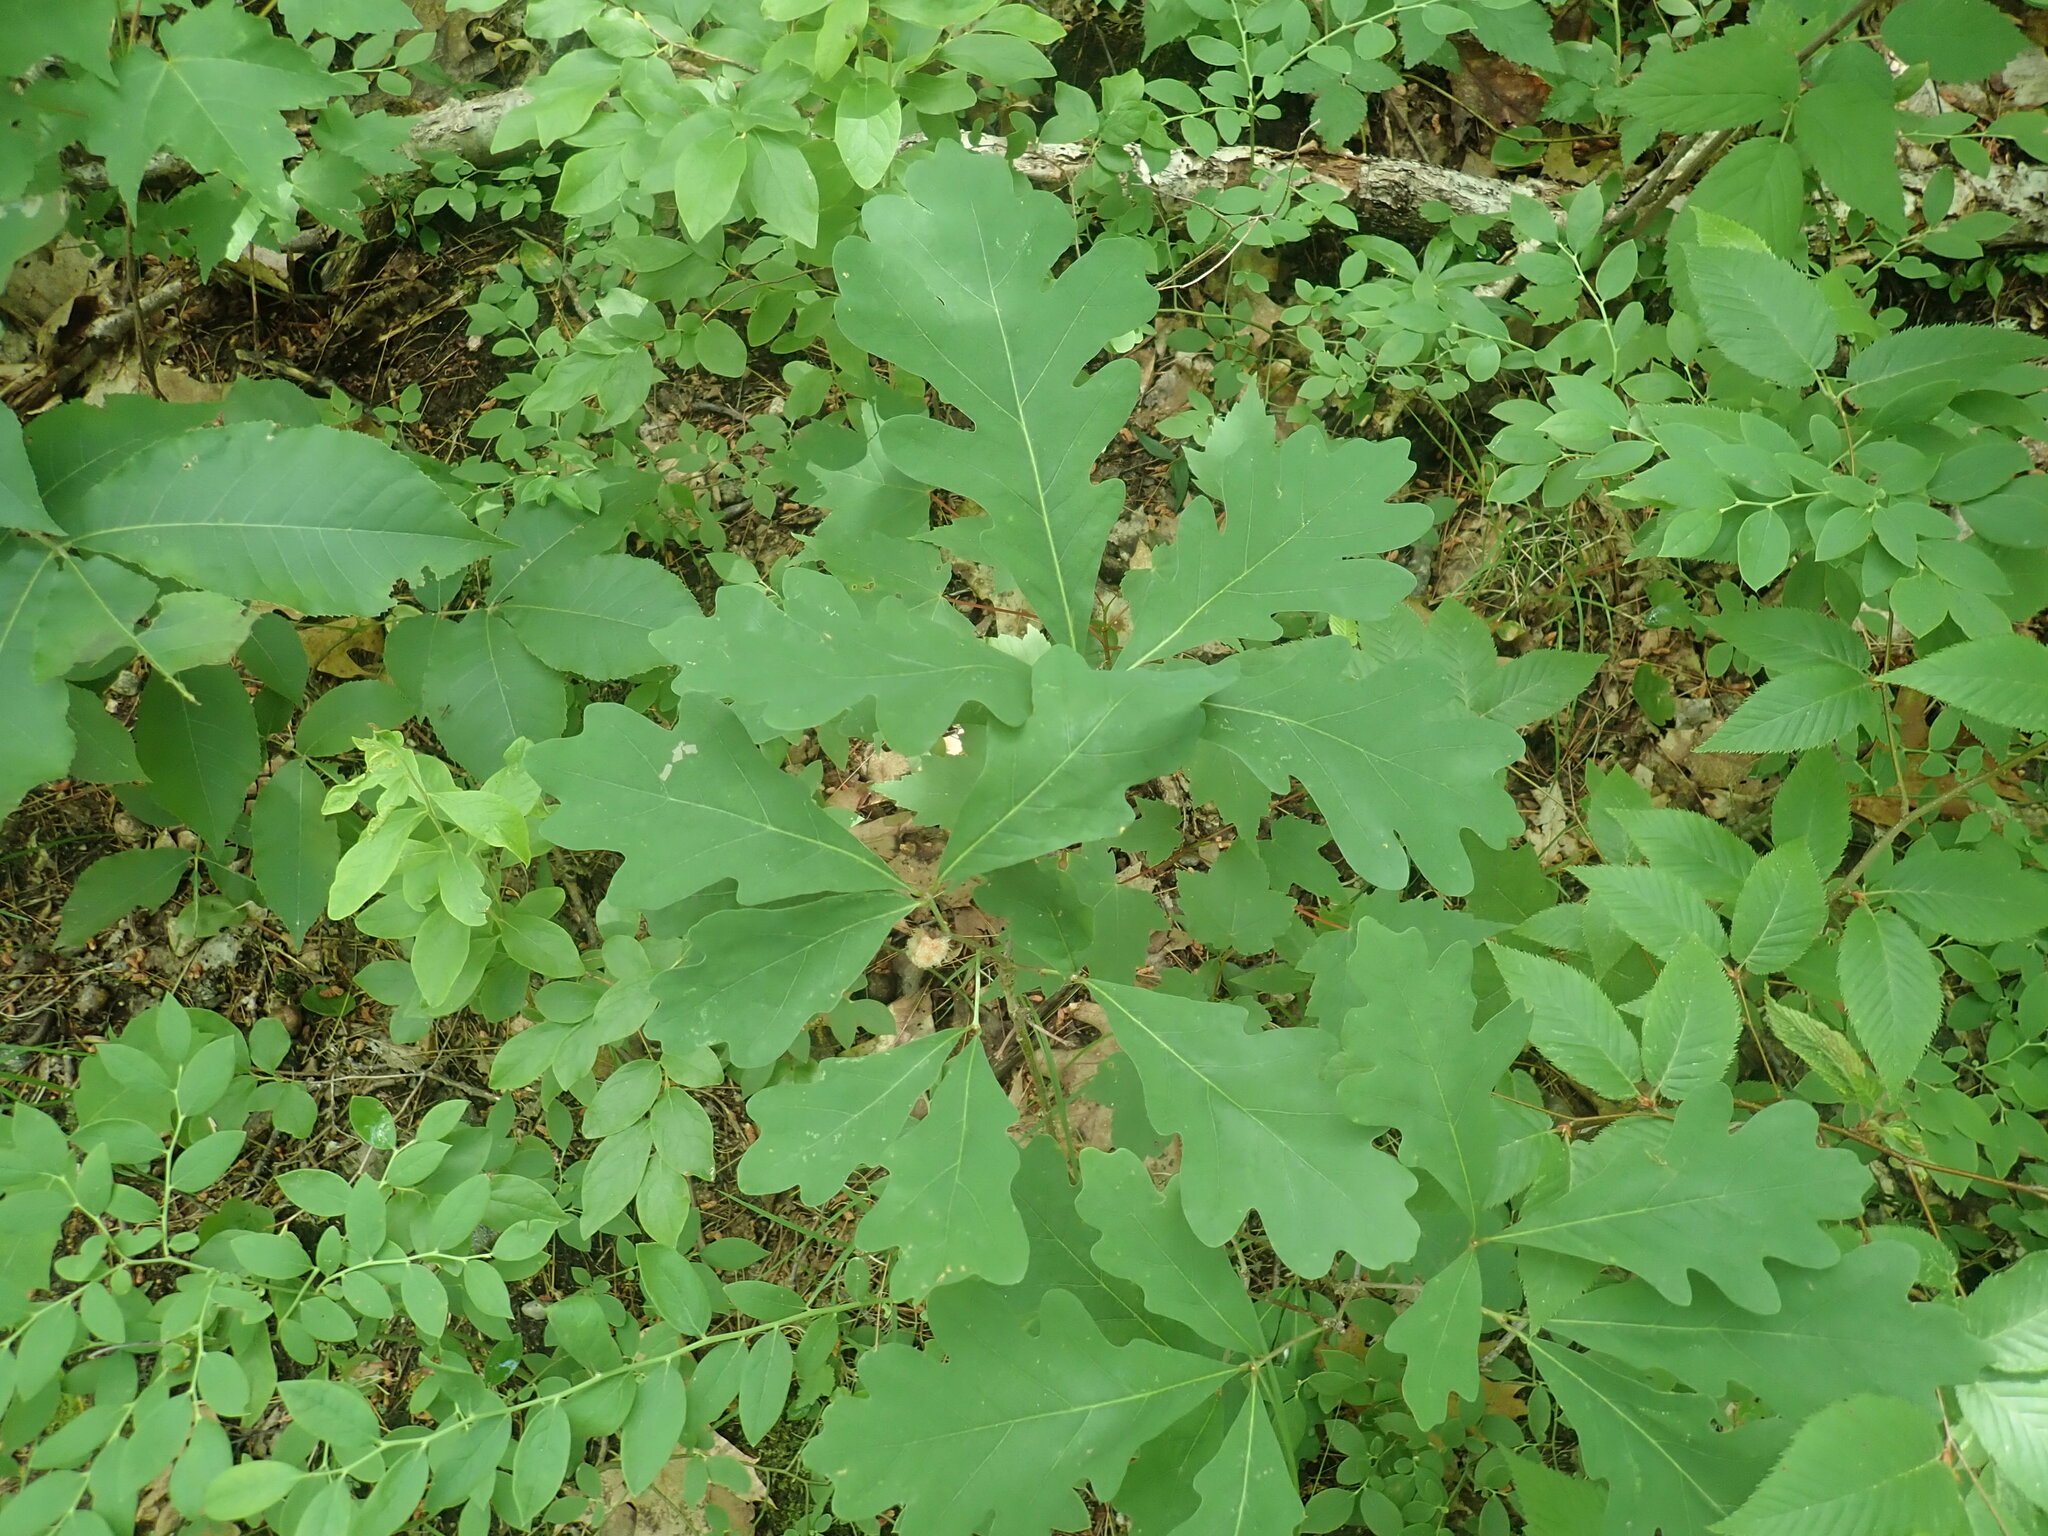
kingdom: Plantae
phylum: Tracheophyta
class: Magnoliopsida
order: Fagales
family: Fagaceae
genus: Quercus
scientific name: Quercus alba
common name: White oak
